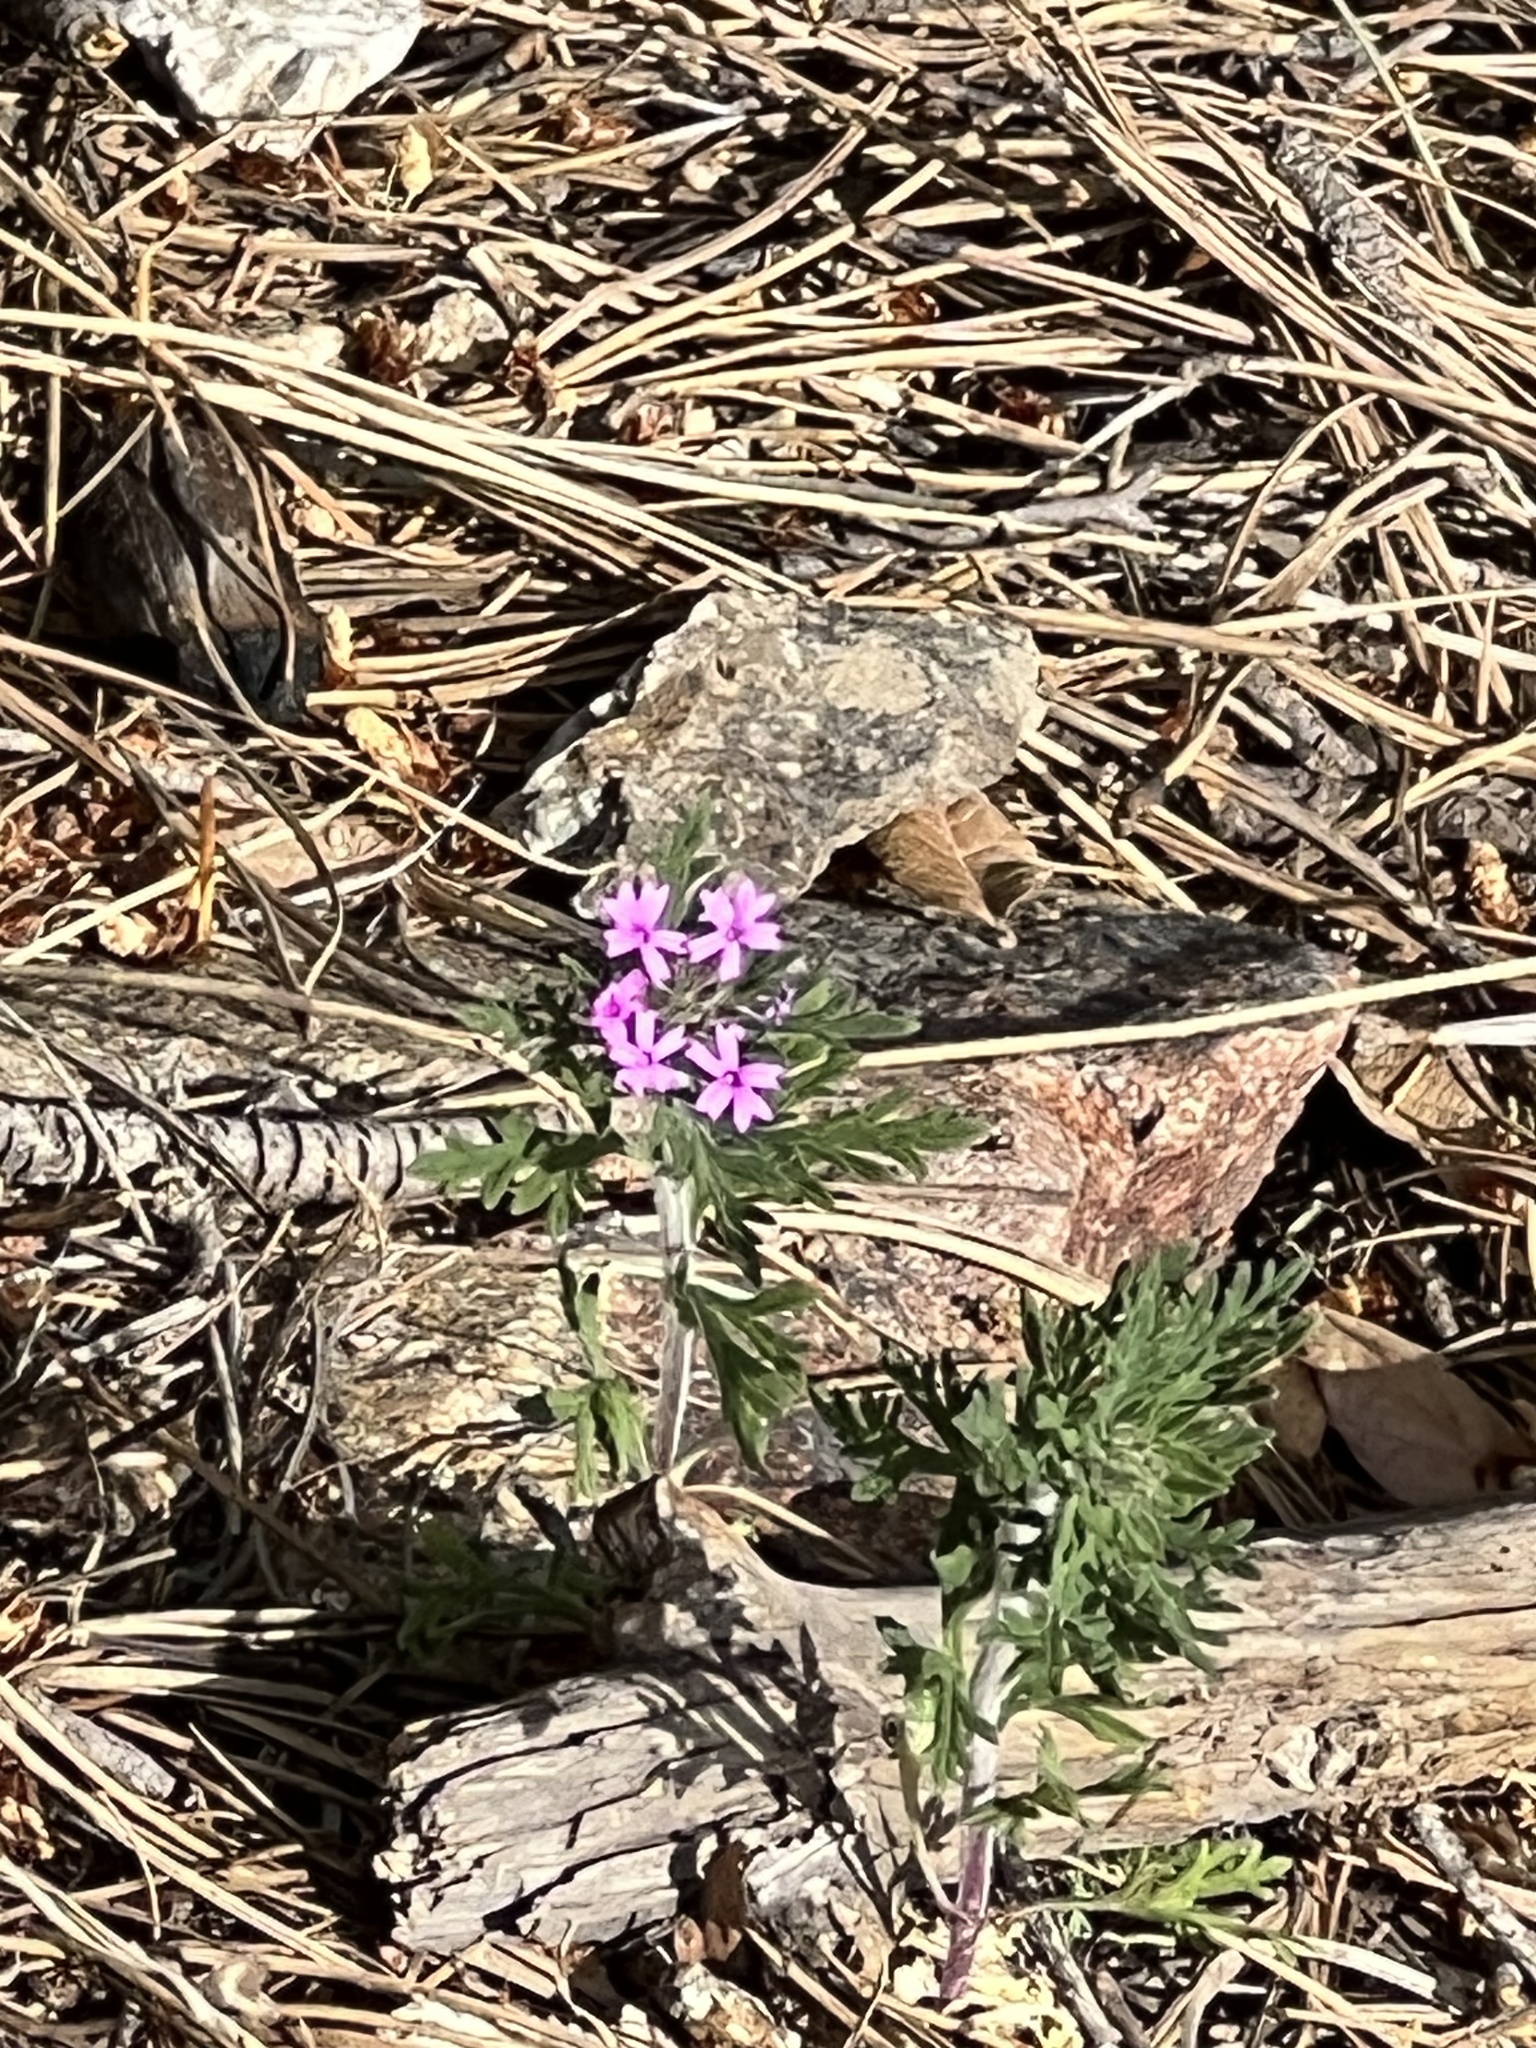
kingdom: Plantae
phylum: Tracheophyta
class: Magnoliopsida
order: Lamiales
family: Verbenaceae
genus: Verbena
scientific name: Verbena chiricahensis
